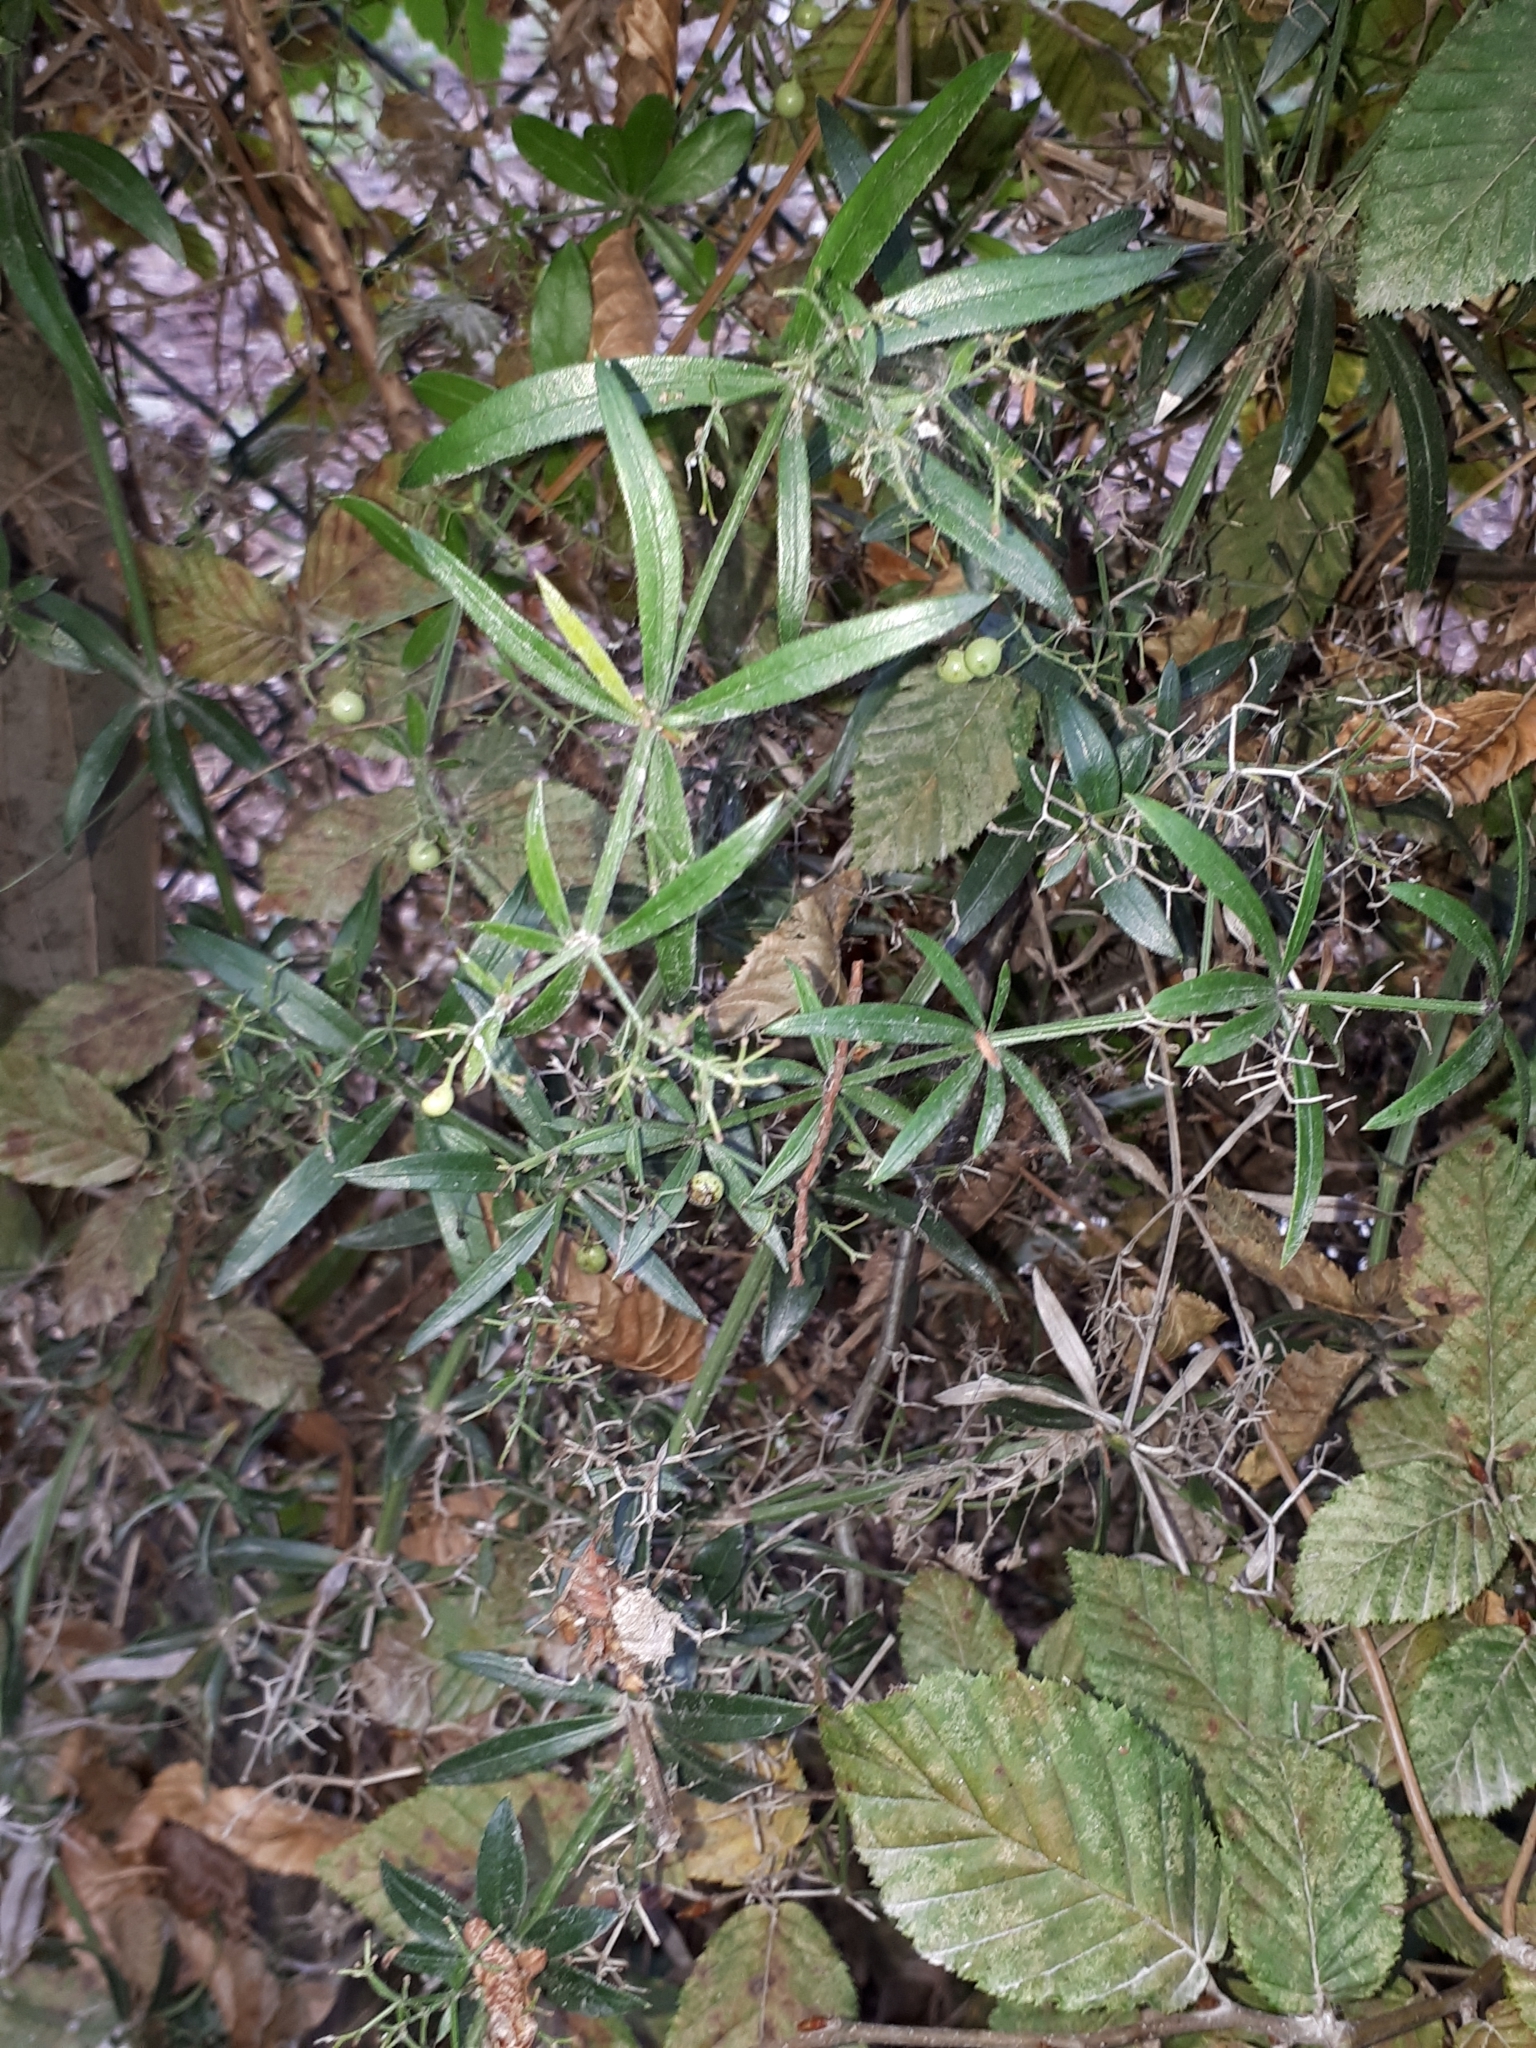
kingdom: Plantae
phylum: Tracheophyta
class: Magnoliopsida
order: Gentianales
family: Rubiaceae
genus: Rubia
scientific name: Rubia peregrina
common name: Wild madder
